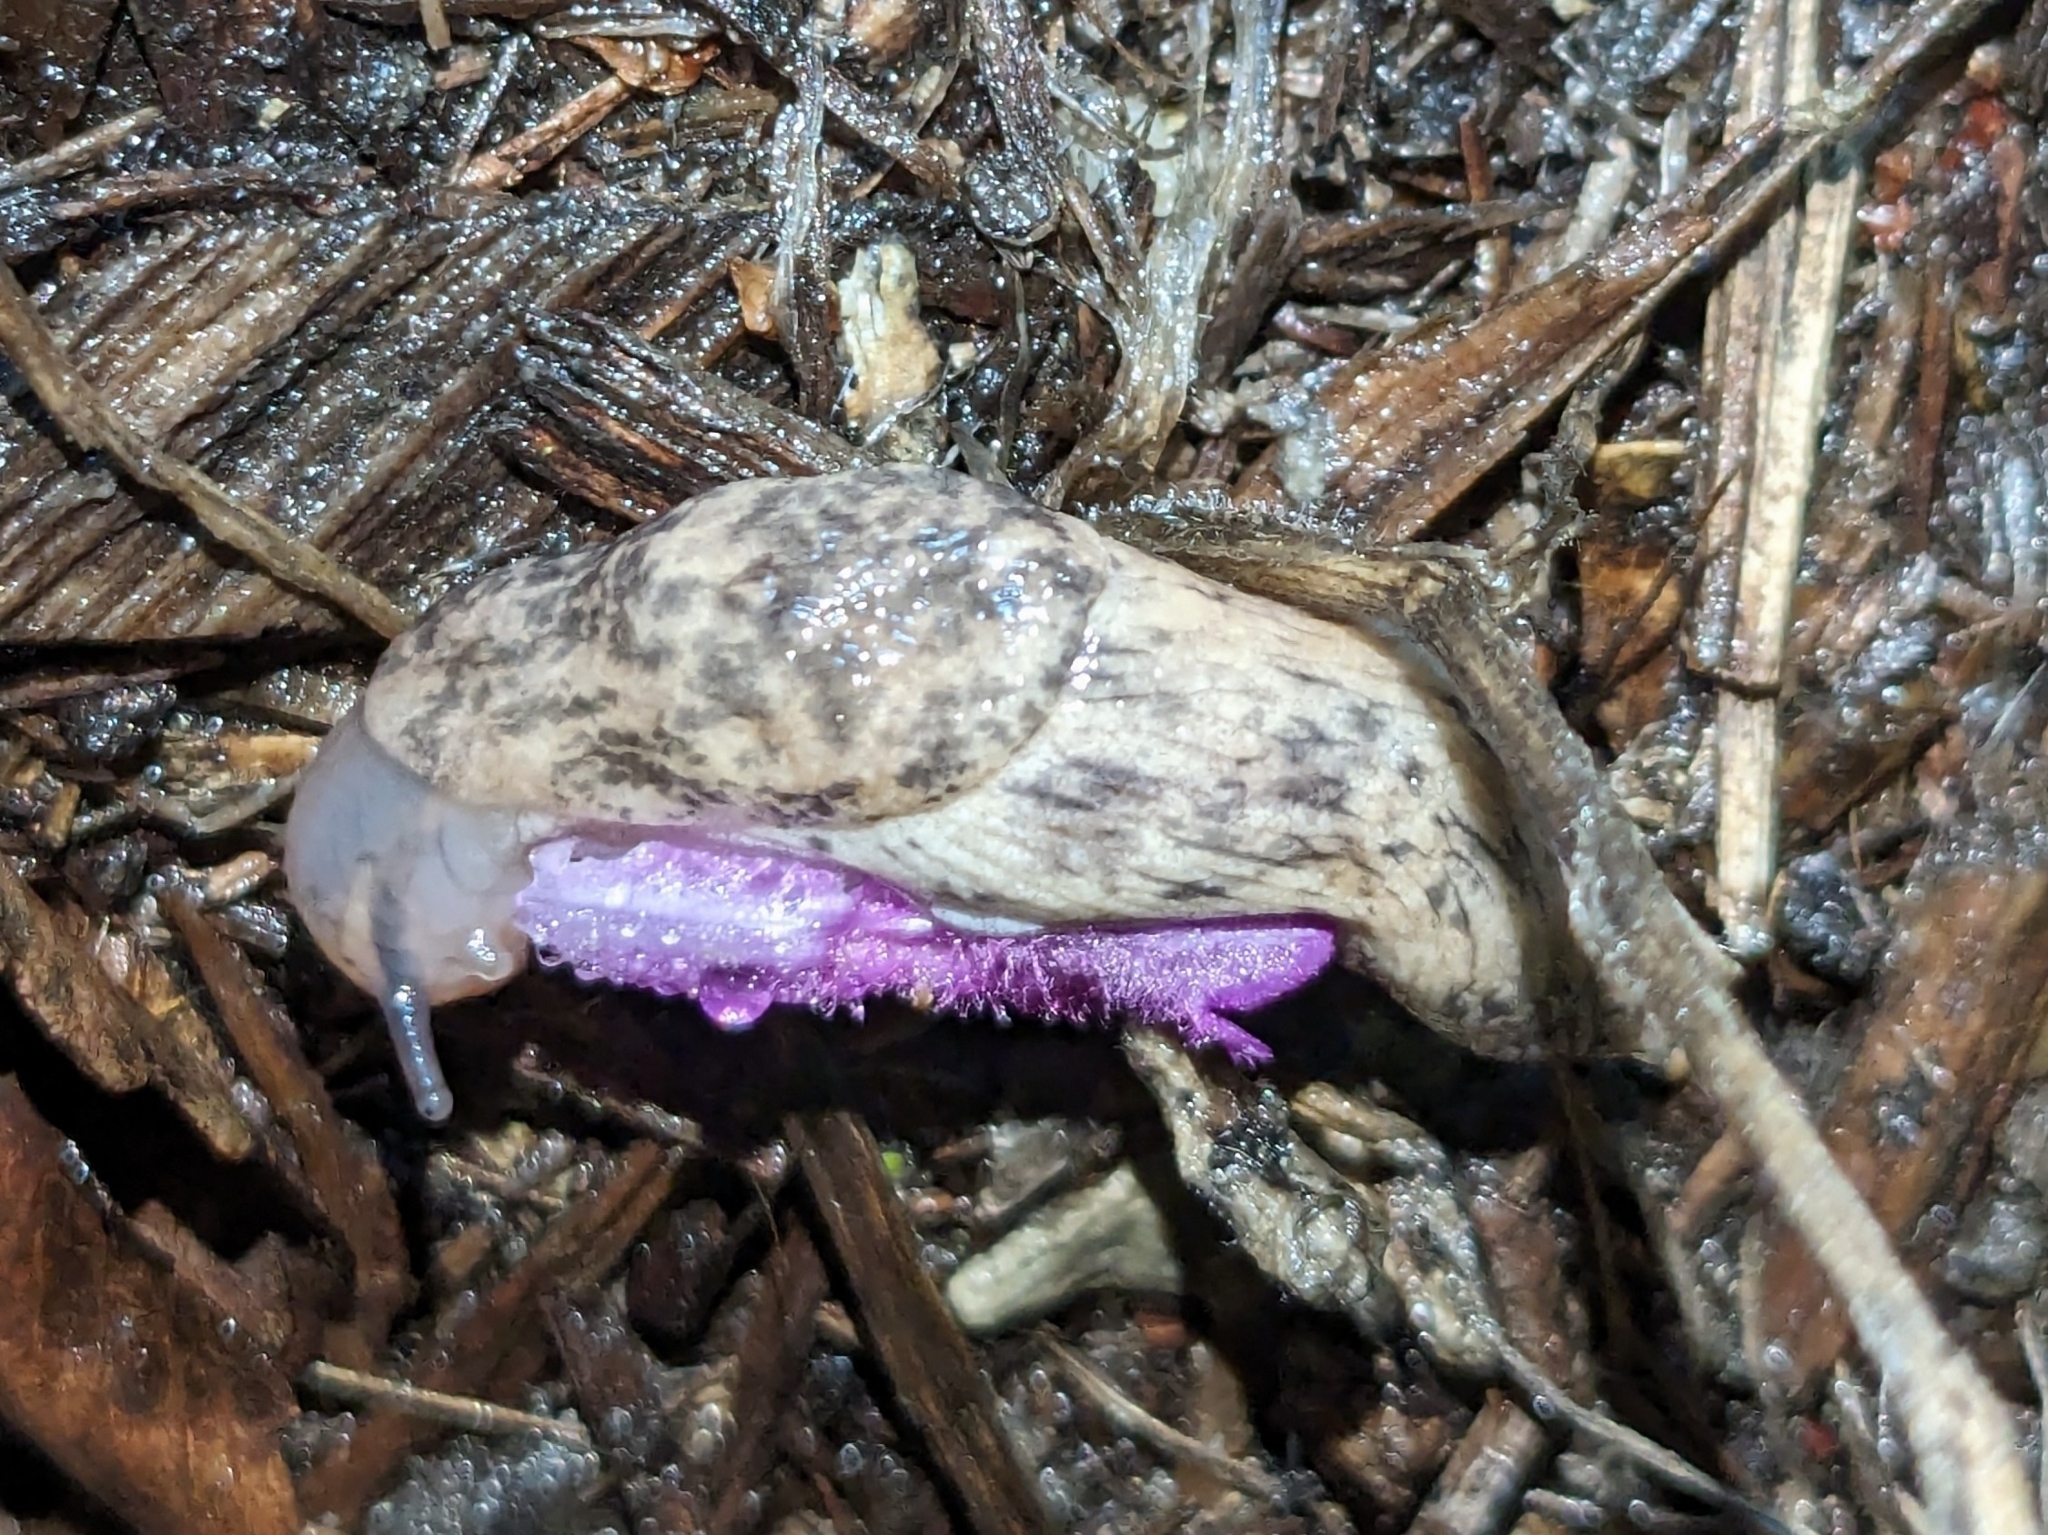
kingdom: Animalia
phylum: Mollusca
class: Gastropoda
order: Stylommatophora
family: Agriolimacidae
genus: Deroceras
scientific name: Deroceras reticulatum
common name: Gray field slug
